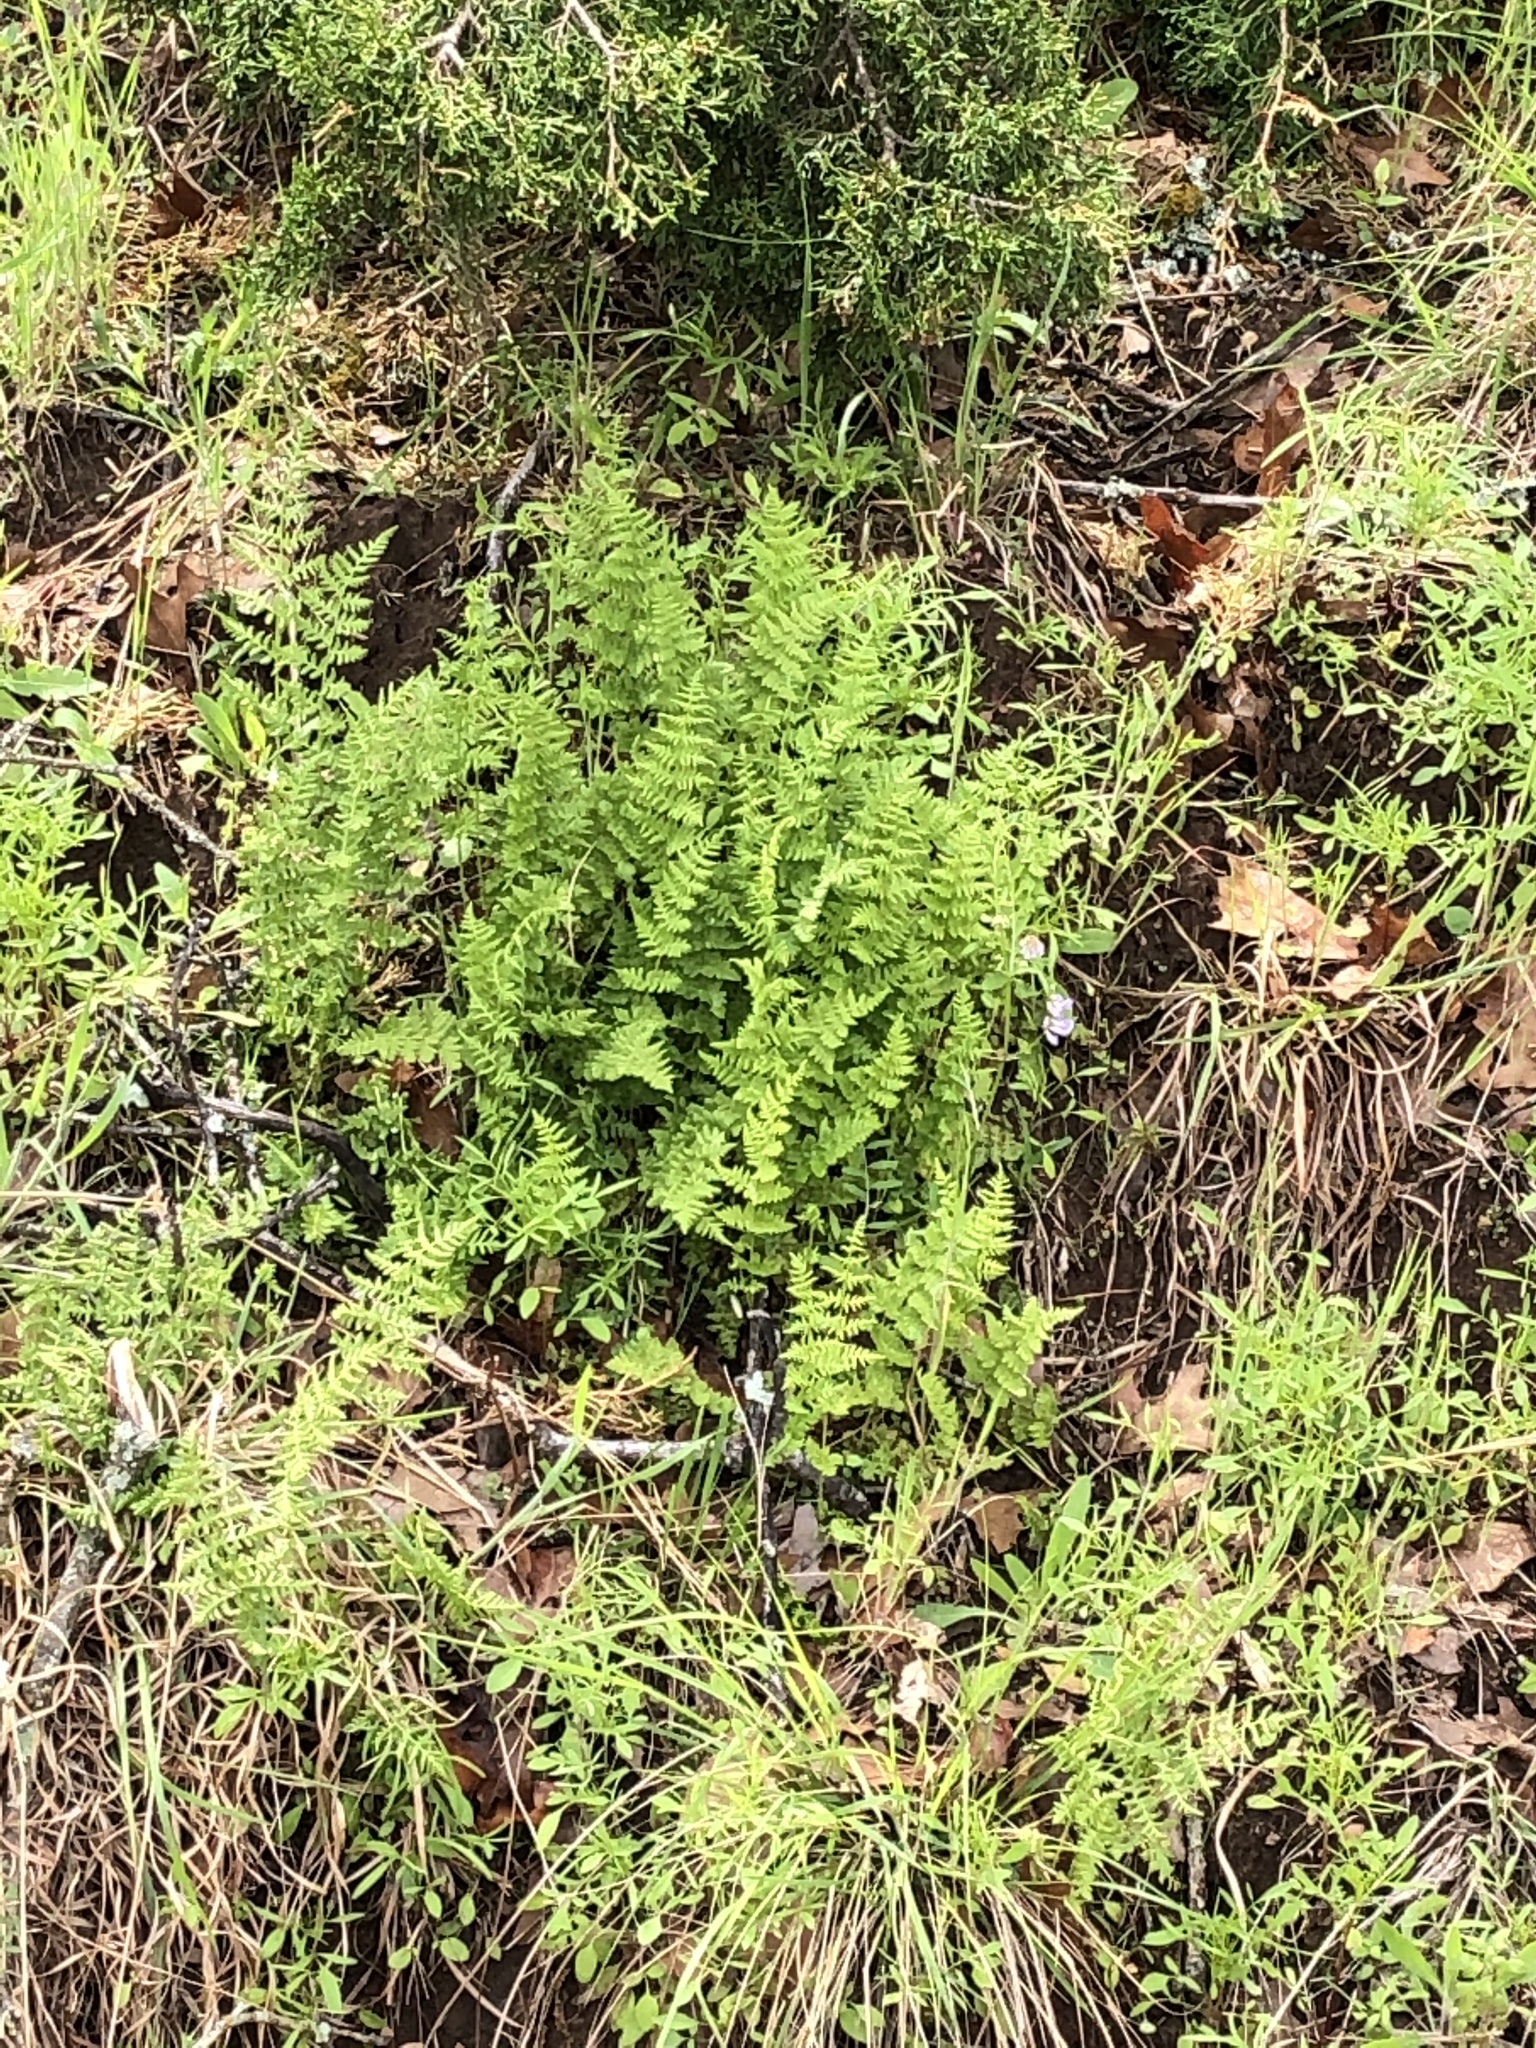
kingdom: Plantae
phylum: Tracheophyta
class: Polypodiopsida
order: Polypodiales
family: Woodsiaceae
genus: Physematium
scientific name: Physematium obtusum
